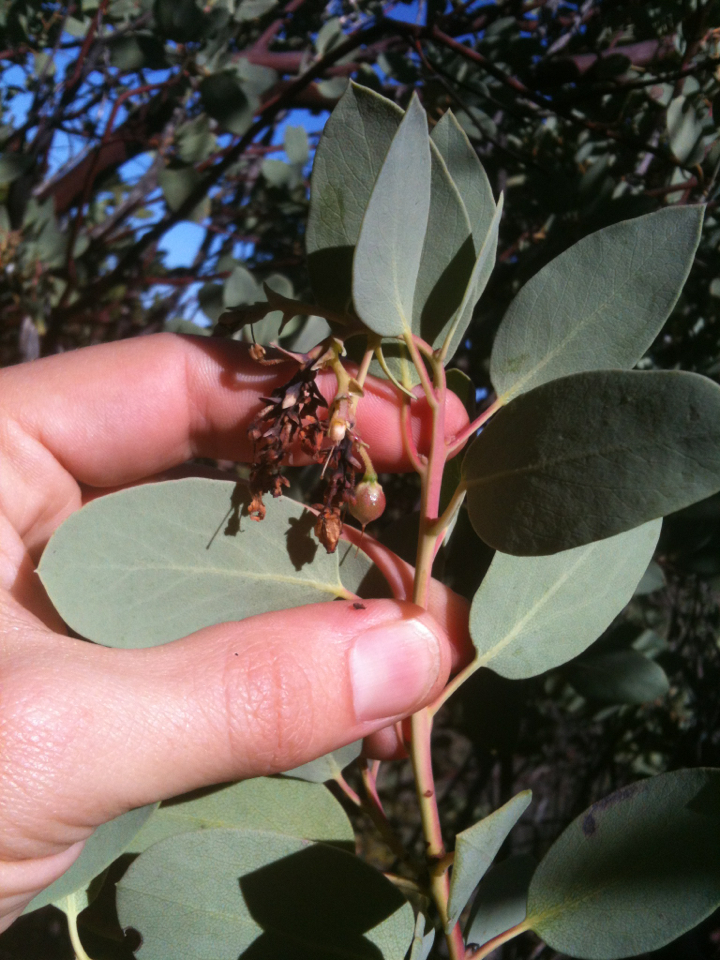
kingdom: Plantae
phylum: Tracheophyta
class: Magnoliopsida
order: Ericales
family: Ericaceae
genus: Arctostaphylos
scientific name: Arctostaphylos glauca
